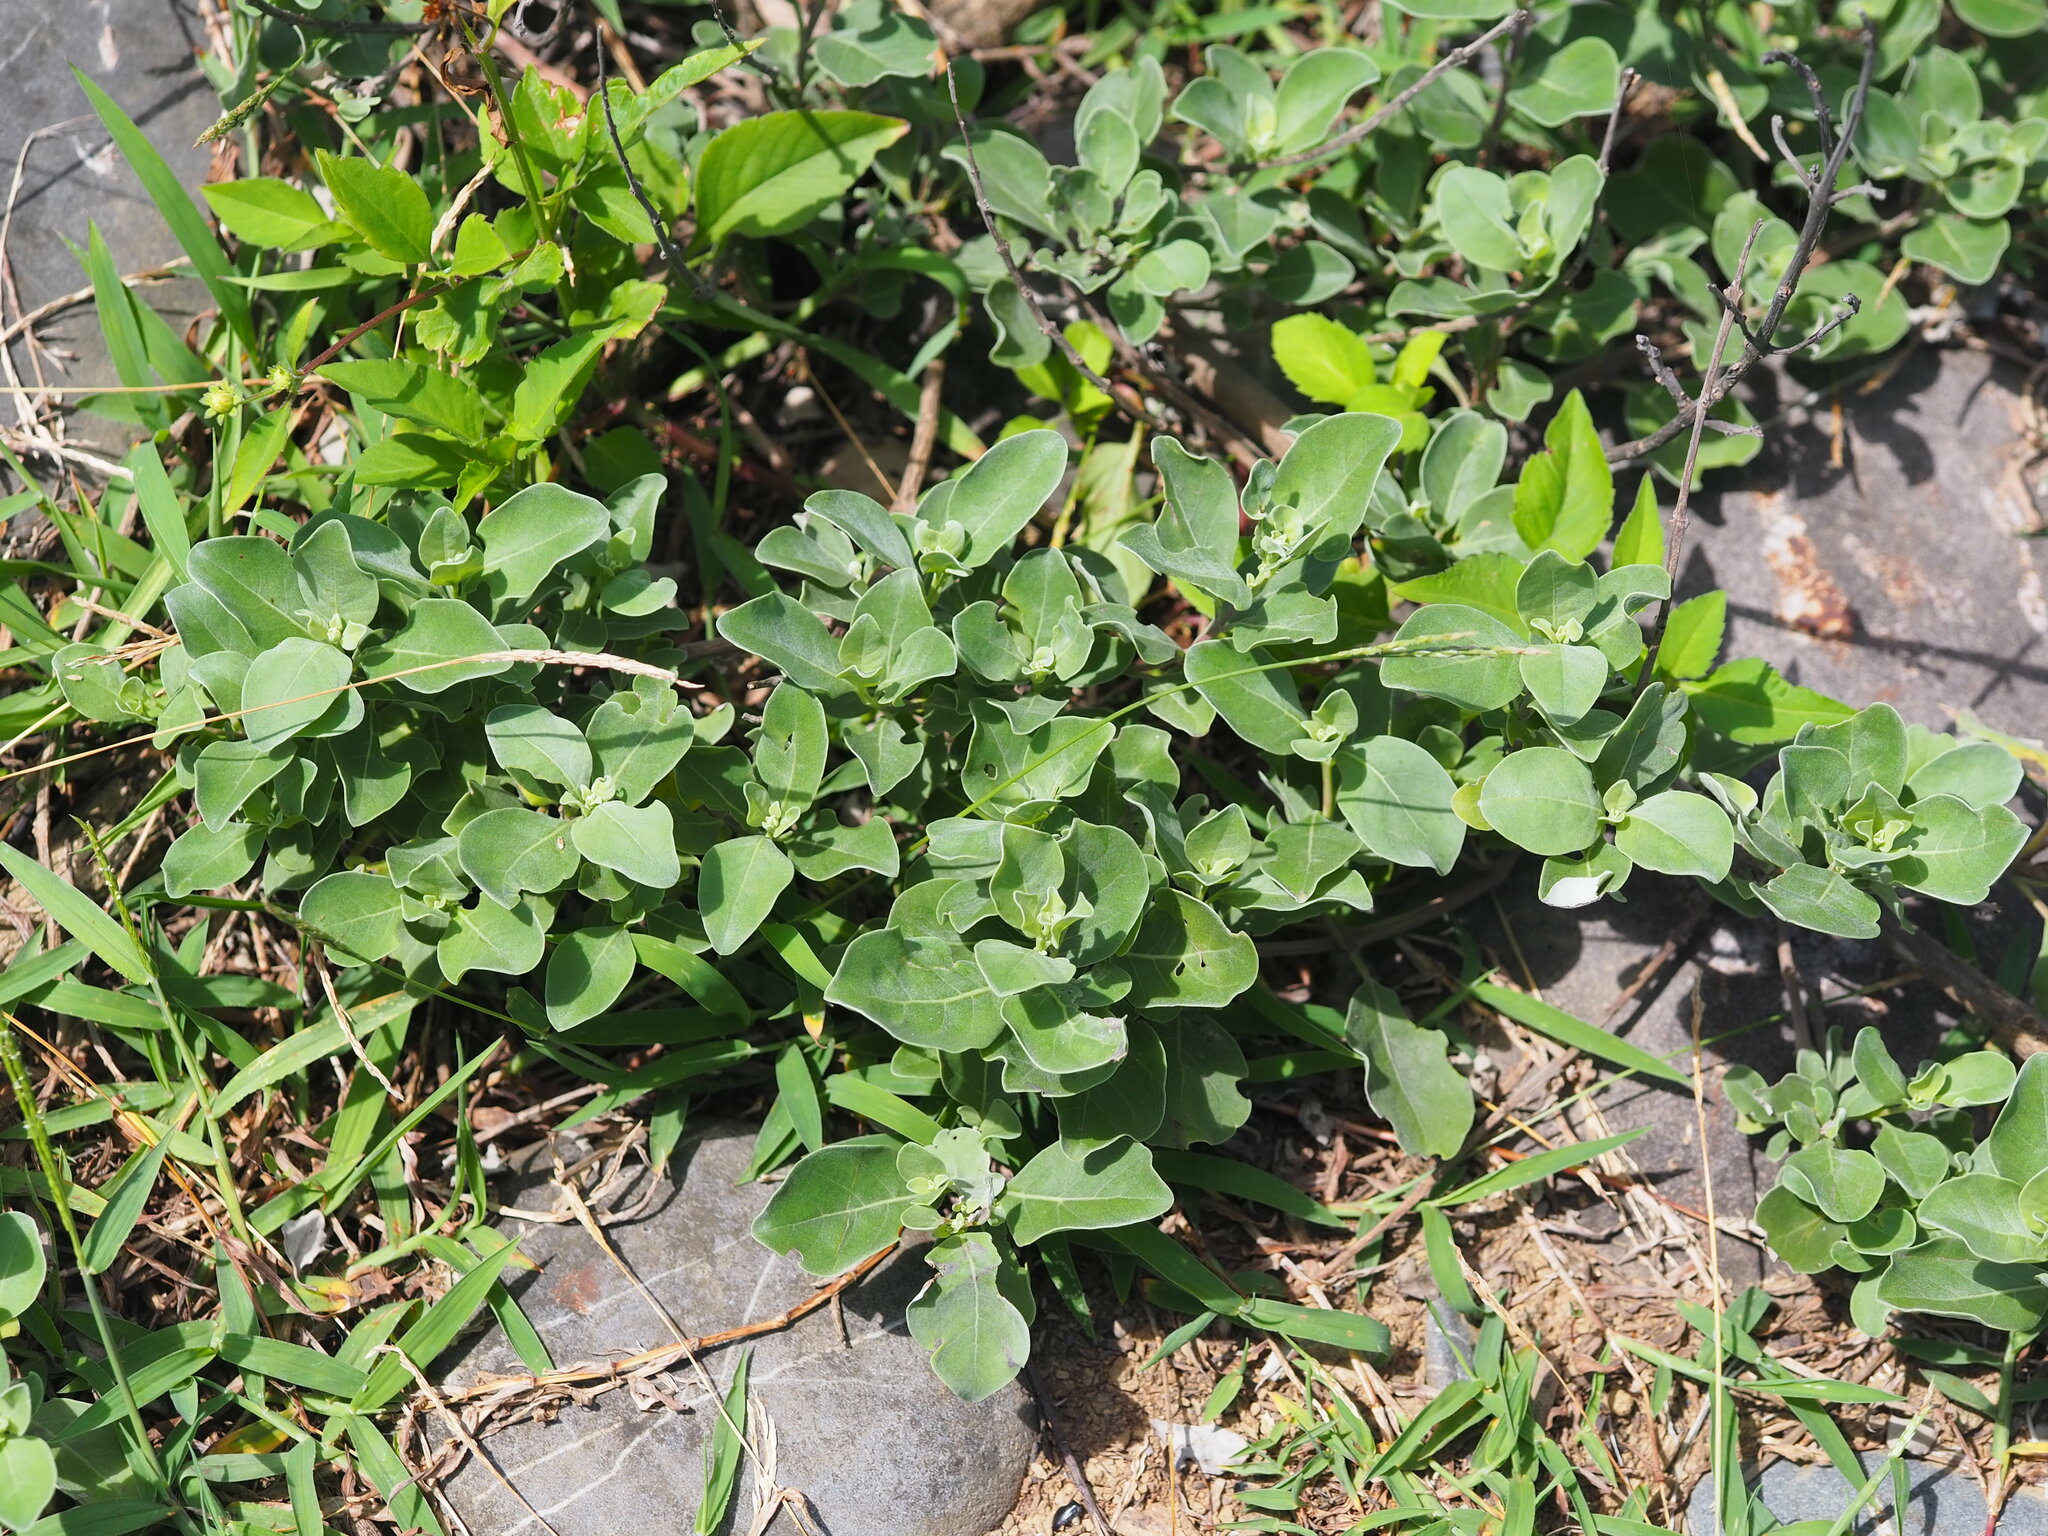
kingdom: Plantae
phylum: Tracheophyta
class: Magnoliopsida
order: Lamiales
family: Lamiaceae
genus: Vitex
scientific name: Vitex rotundifolia
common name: Beach vitex
